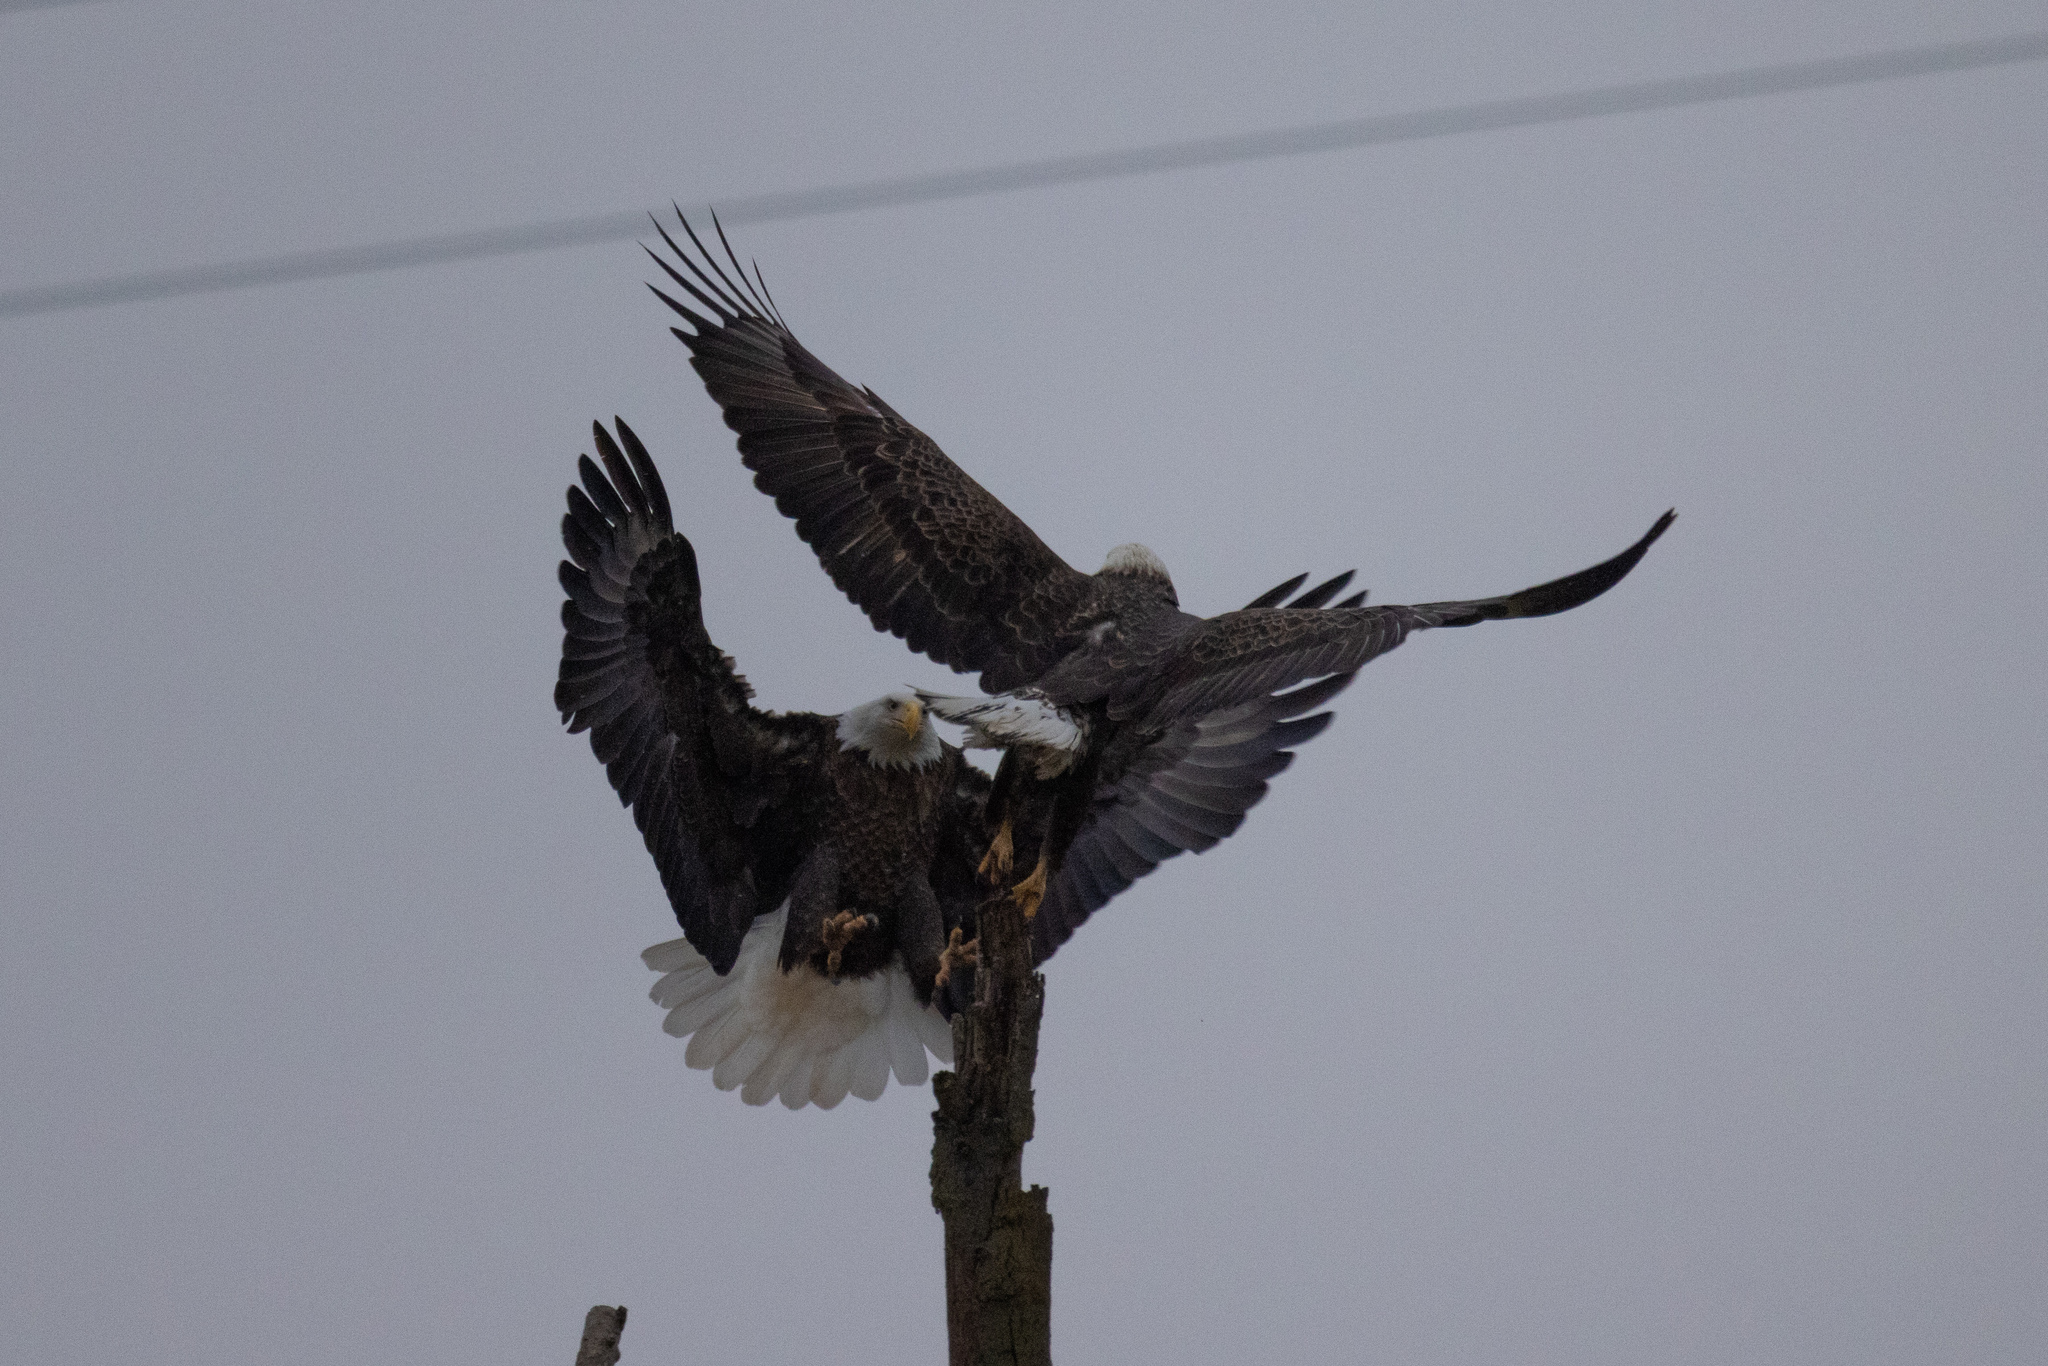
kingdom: Animalia
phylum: Chordata
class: Aves
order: Accipitriformes
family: Accipitridae
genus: Haliaeetus
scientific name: Haliaeetus leucocephalus
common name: Bald eagle
